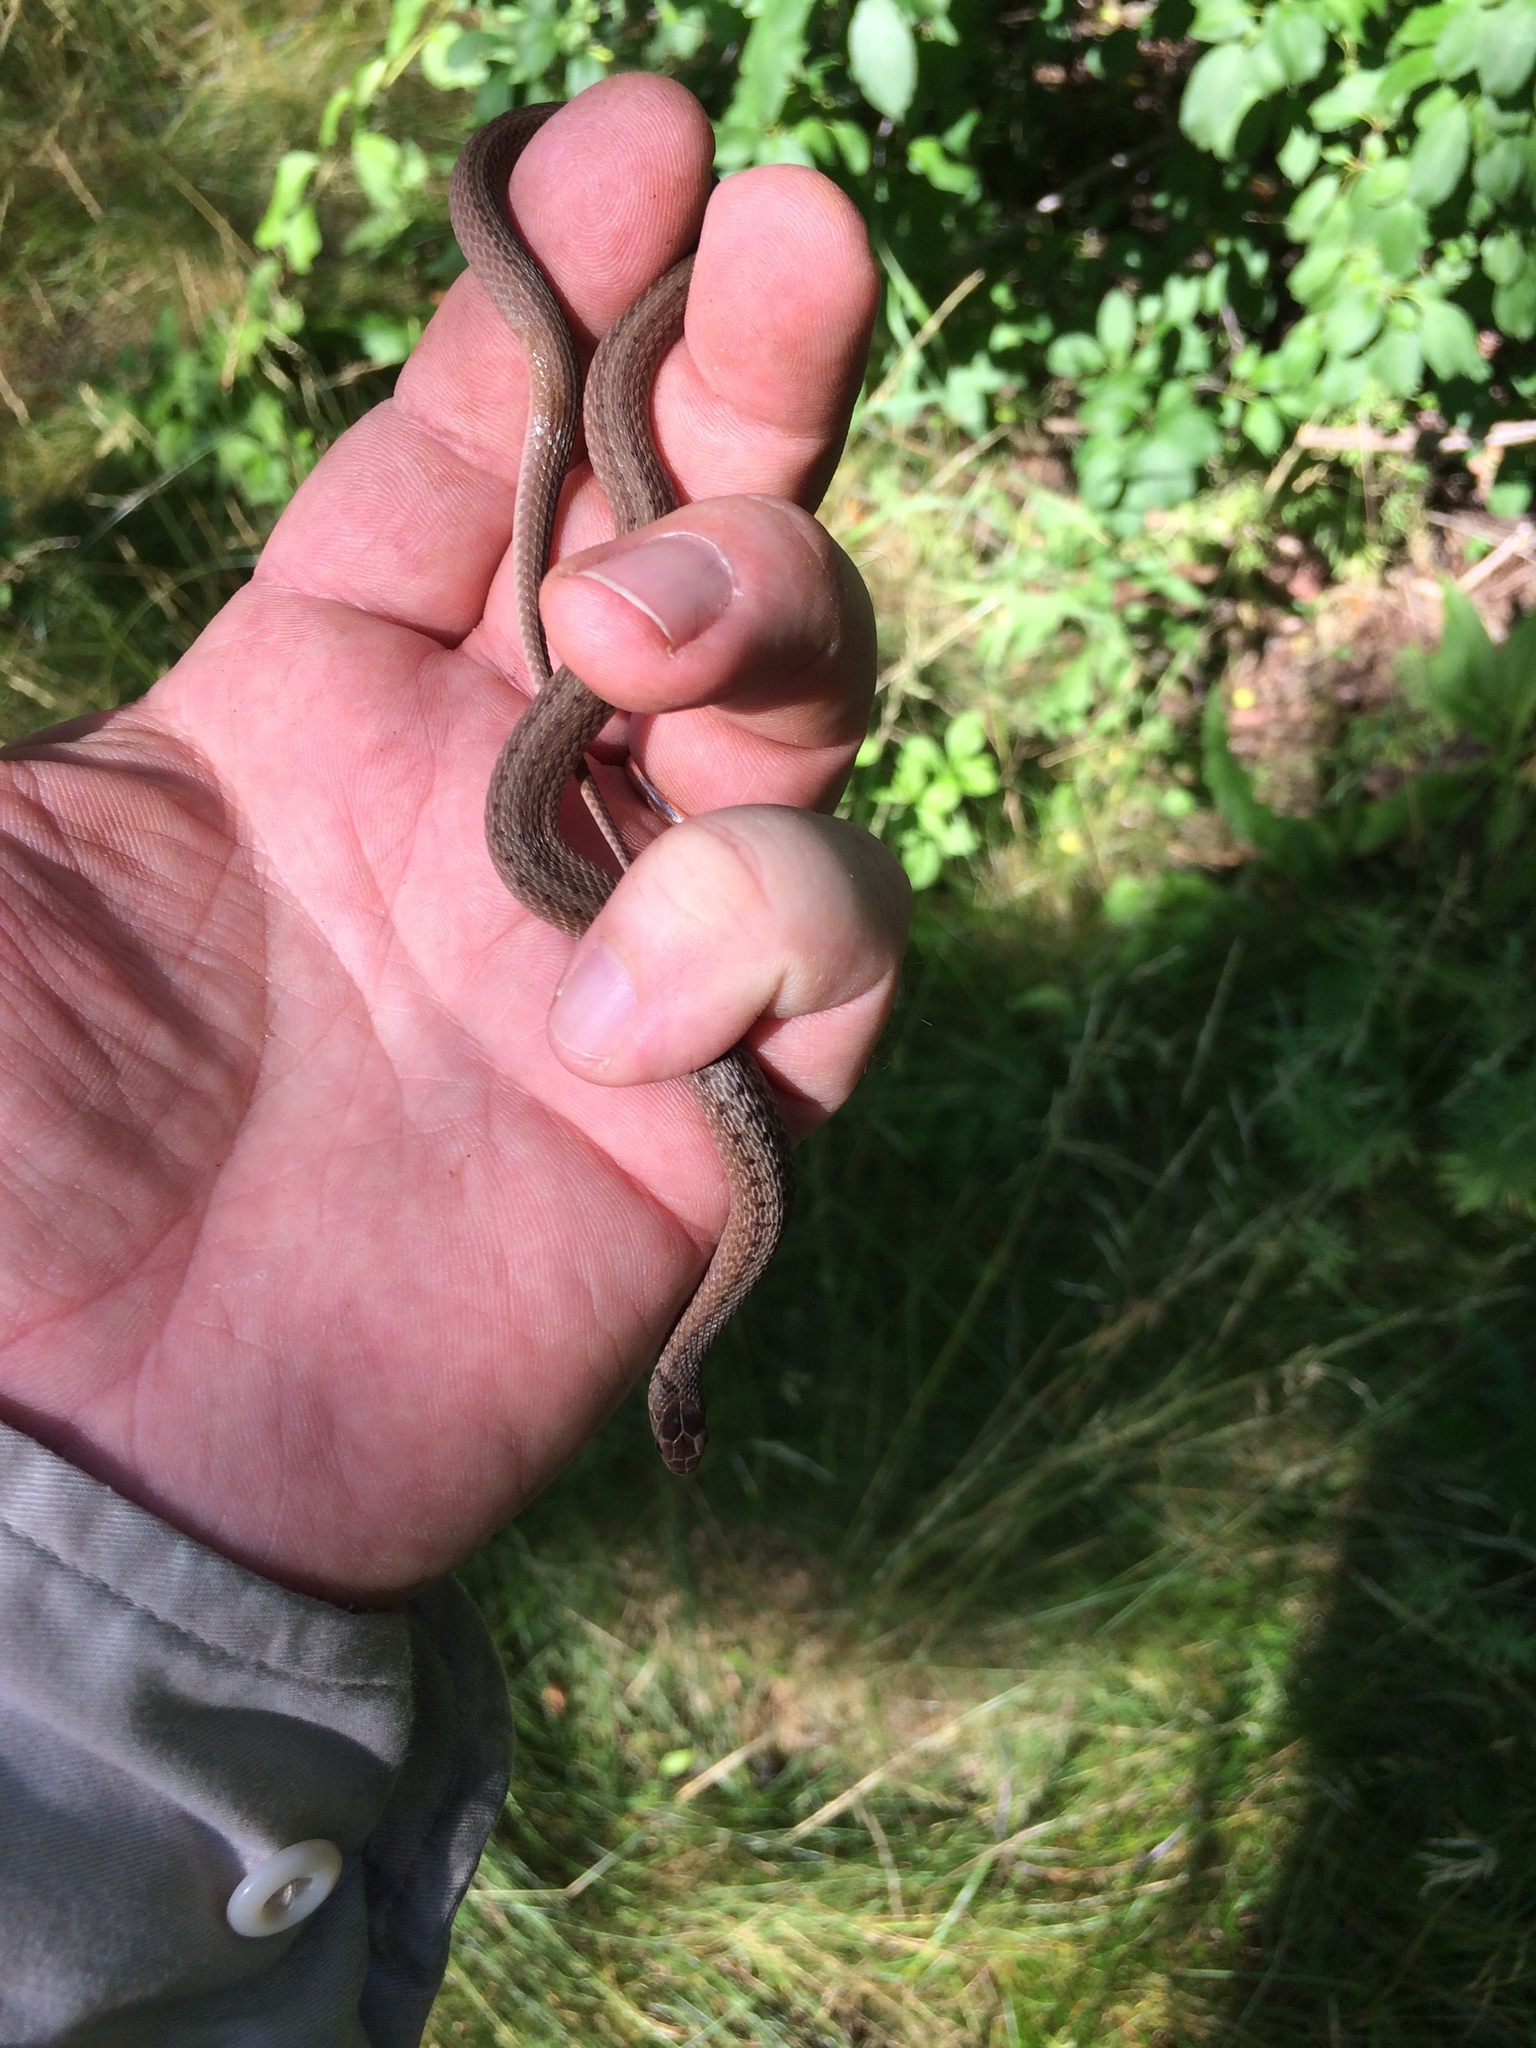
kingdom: Animalia
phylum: Chordata
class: Squamata
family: Colubridae
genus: Storeria
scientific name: Storeria dekayi
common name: (dekay’s) brown snake
